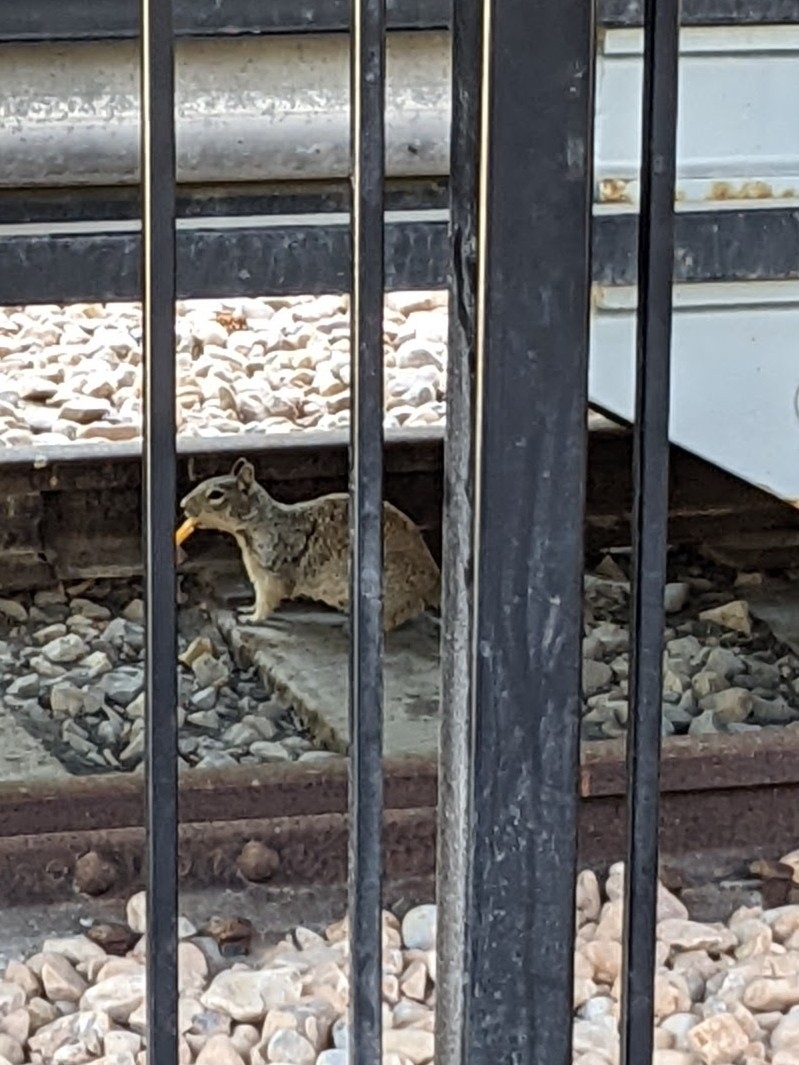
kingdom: Animalia
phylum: Chordata
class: Mammalia
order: Rodentia
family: Sciuridae
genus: Otospermophilus
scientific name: Otospermophilus variegatus
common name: Rock squirrel
